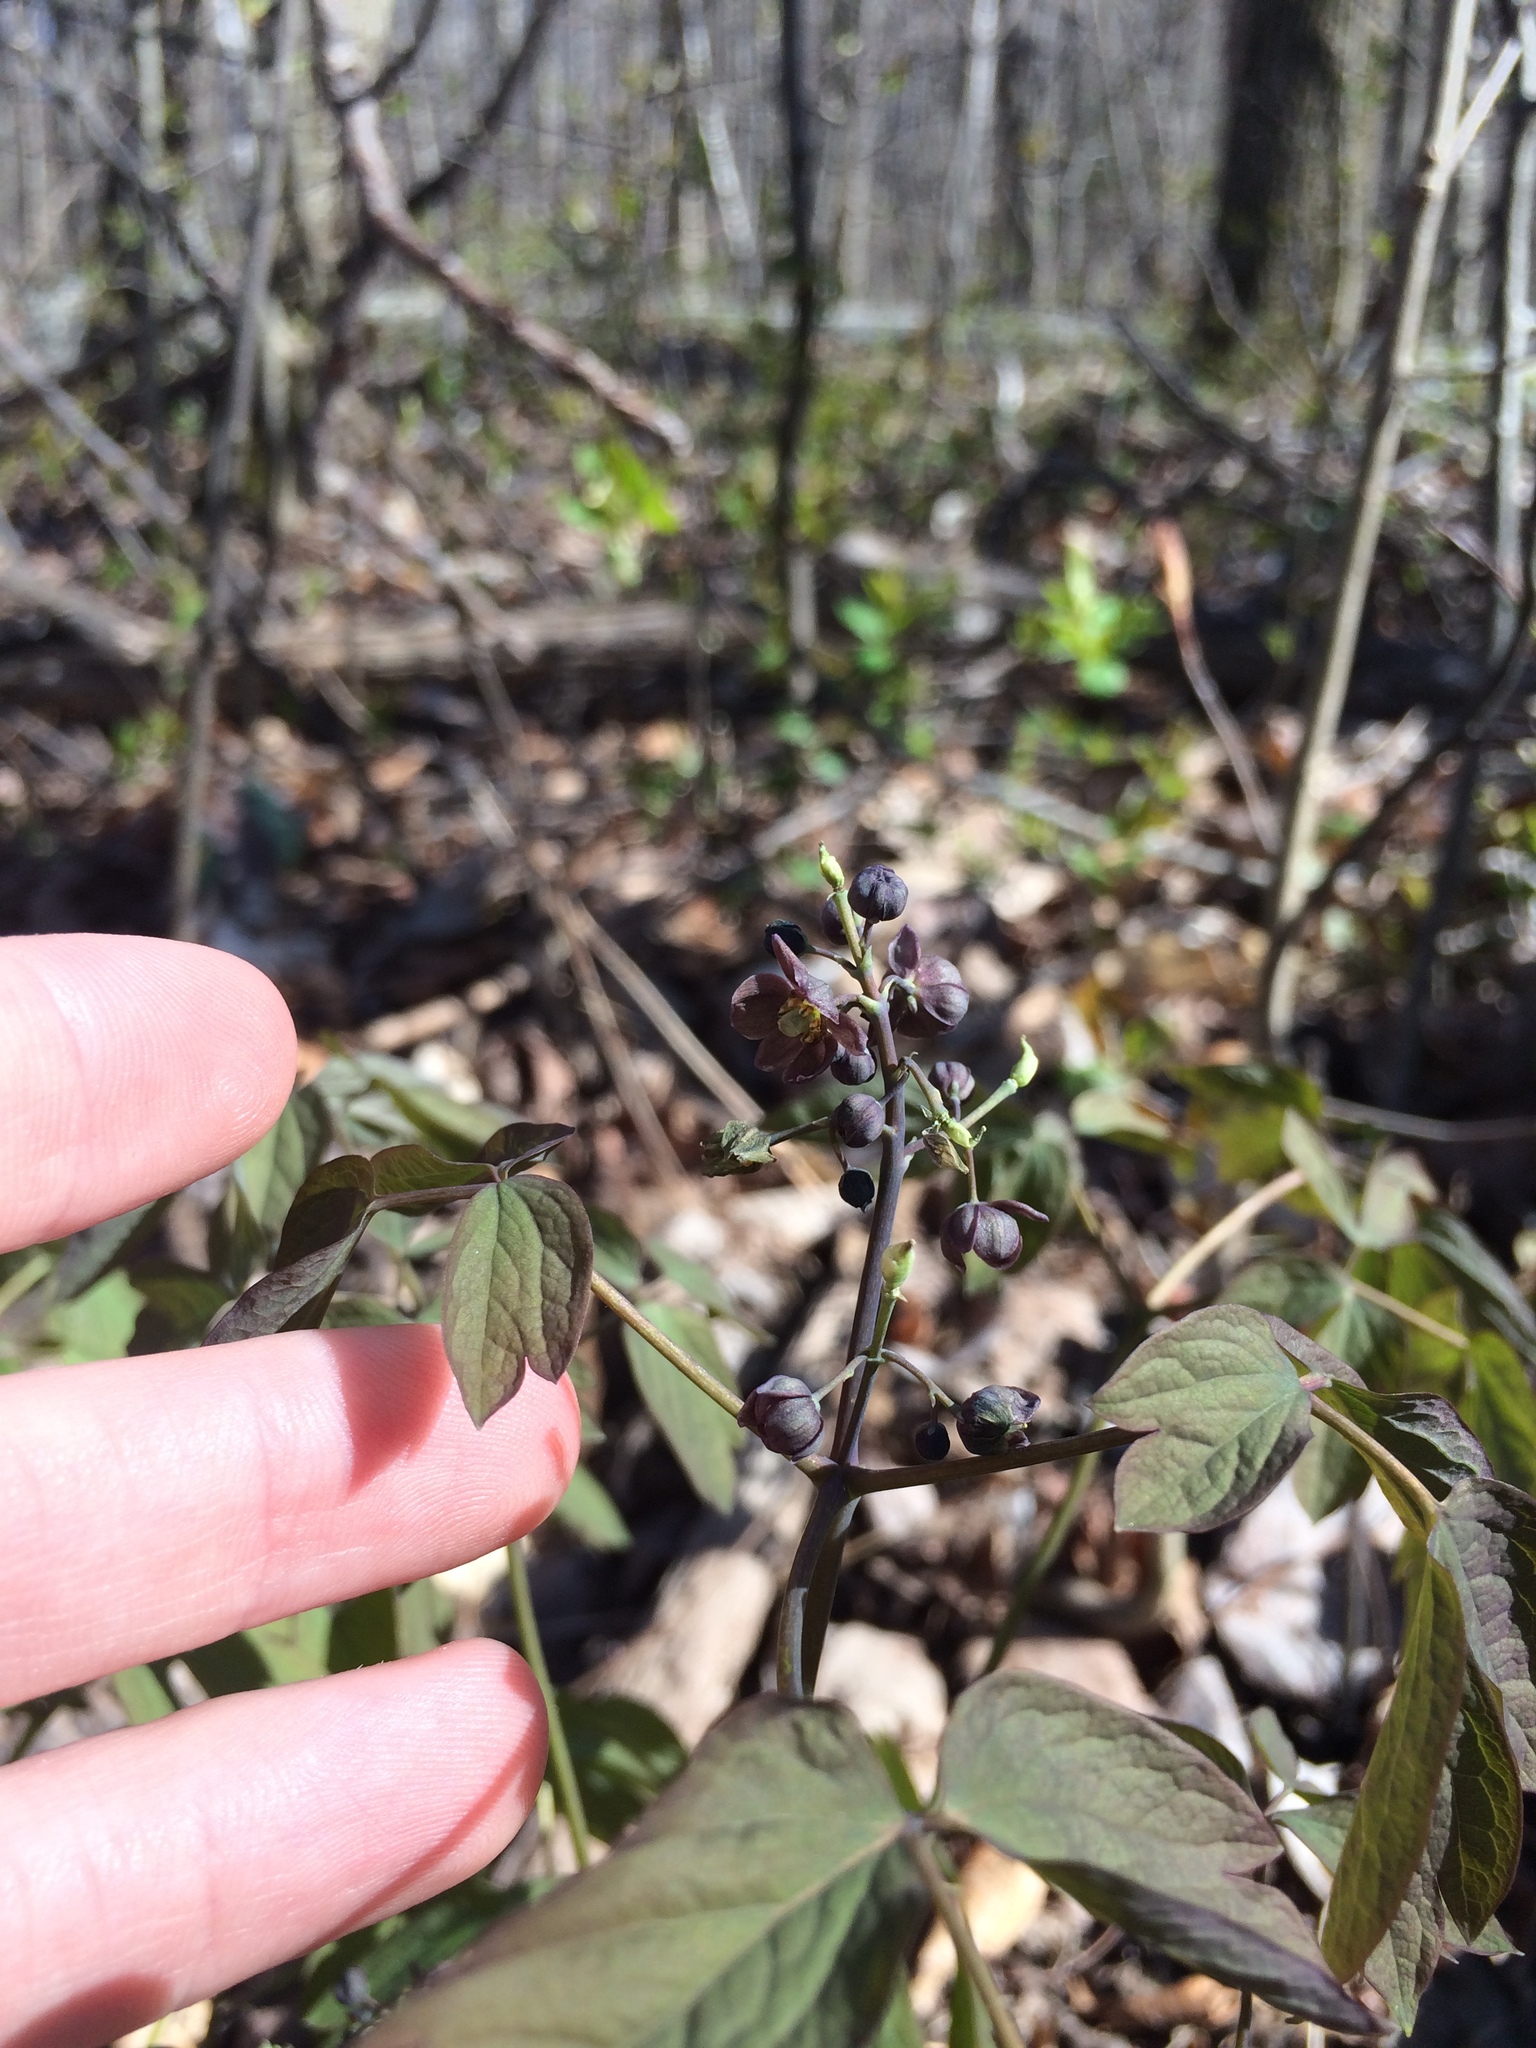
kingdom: Plantae
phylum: Tracheophyta
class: Magnoliopsida
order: Ranunculales
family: Berberidaceae
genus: Caulophyllum
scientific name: Caulophyllum giganteum
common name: Blue cohosh
